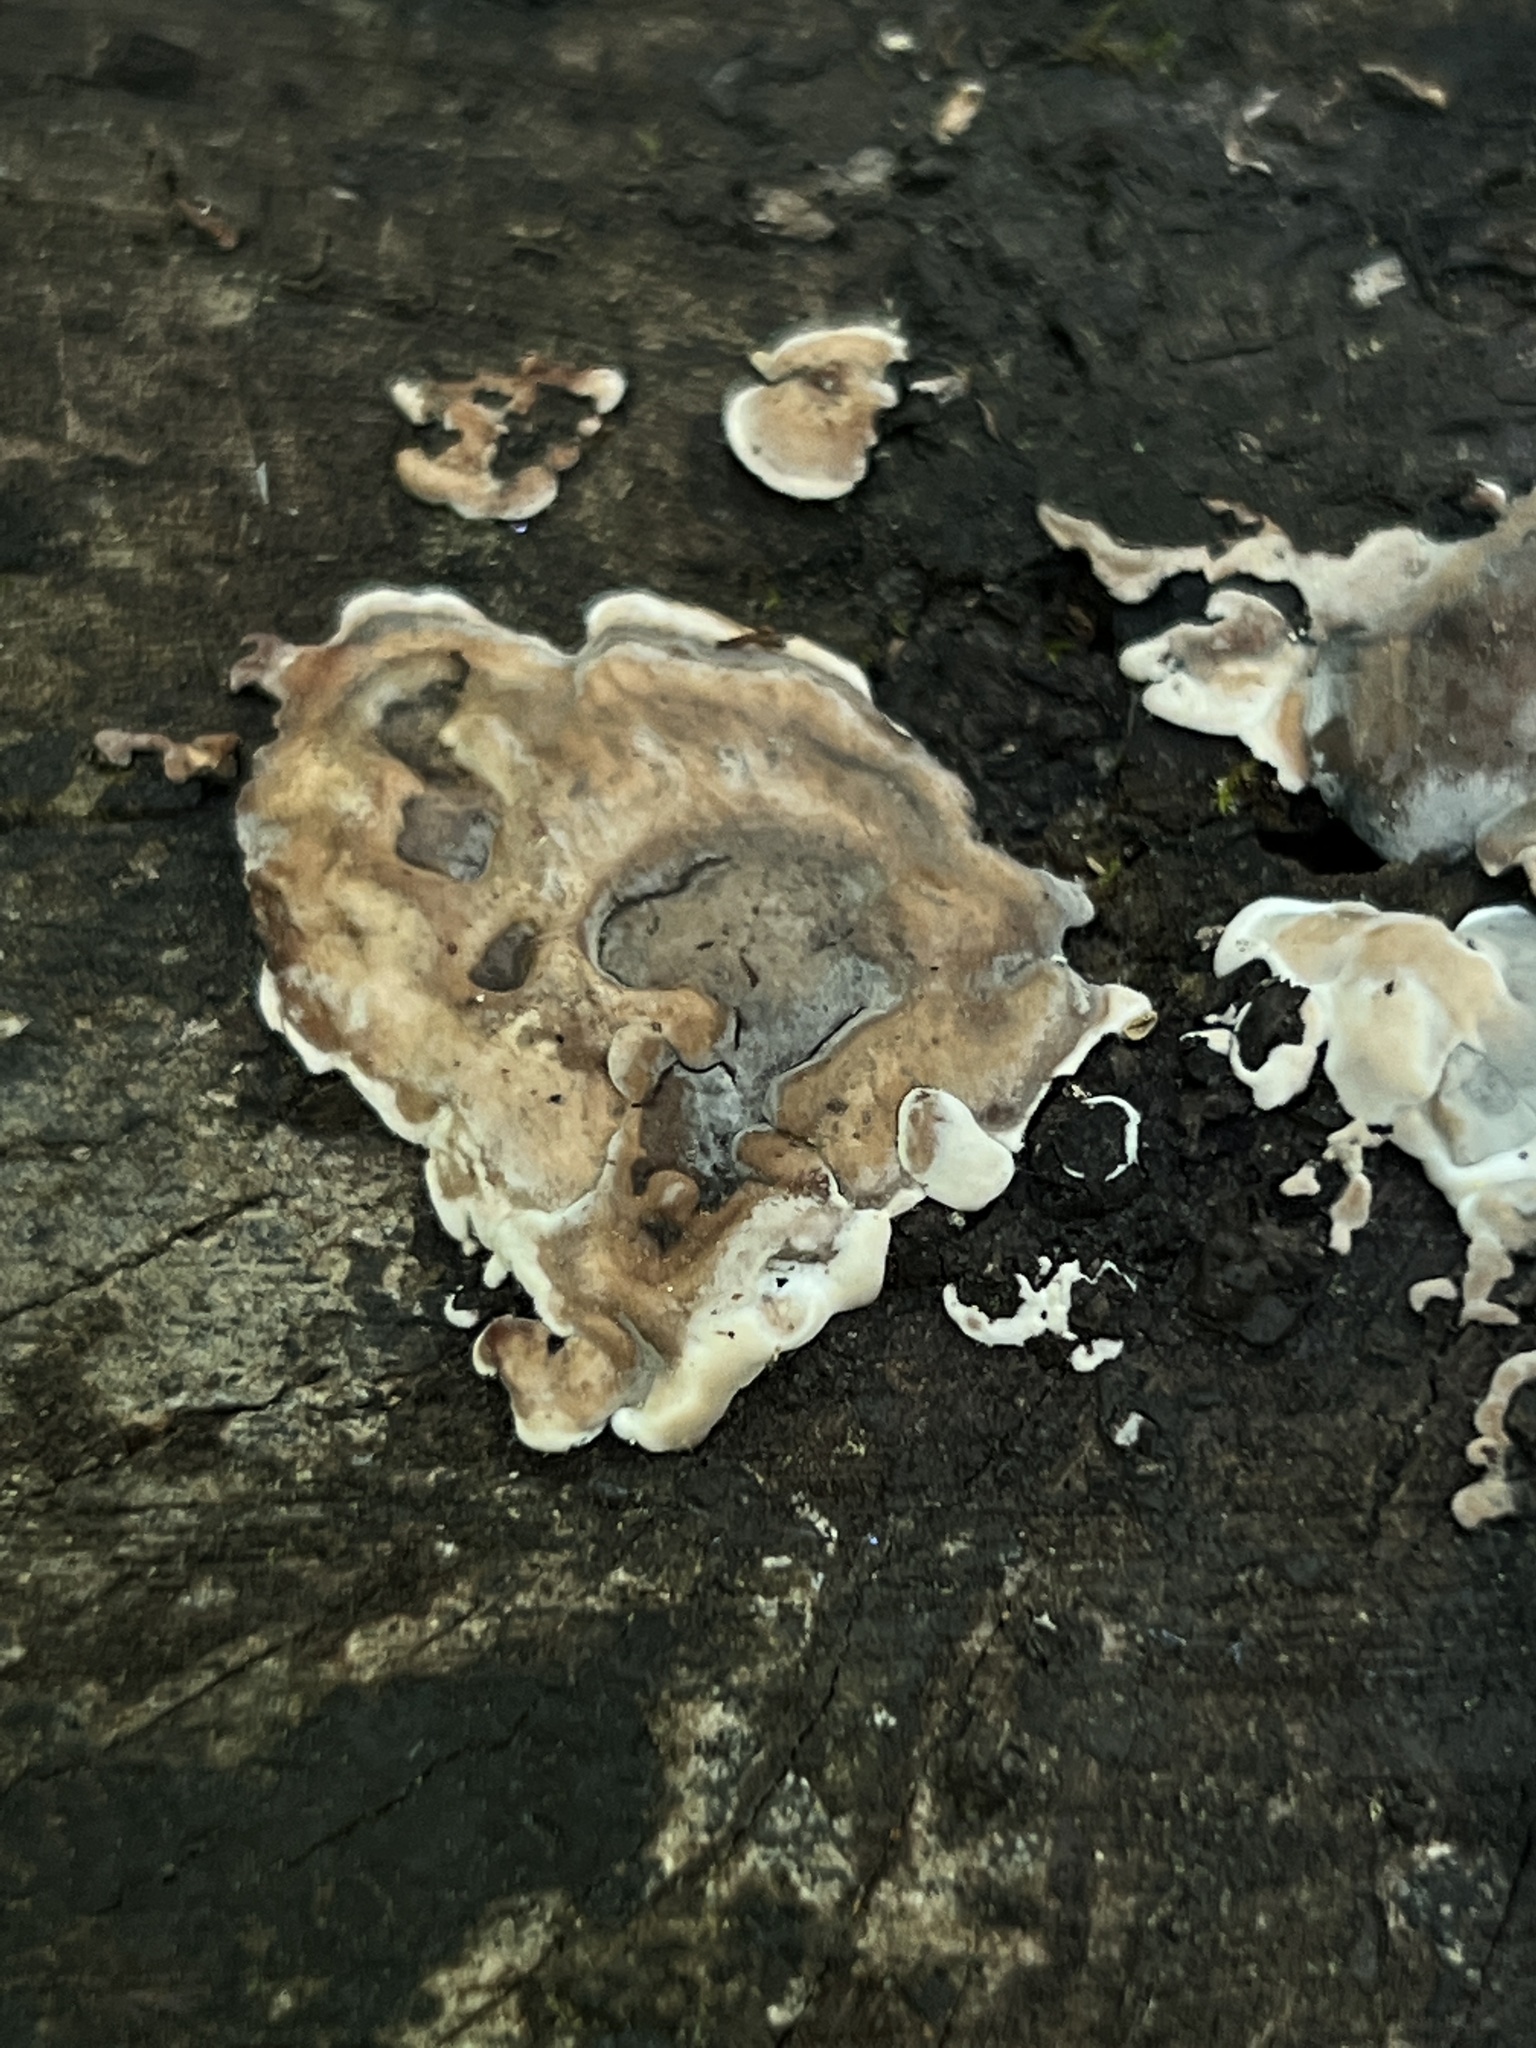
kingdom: Fungi
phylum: Ascomycota
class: Sordariomycetes
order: Xylariales
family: Xylariaceae
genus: Kretzschmaria
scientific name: Kretzschmaria hedjaroudei
